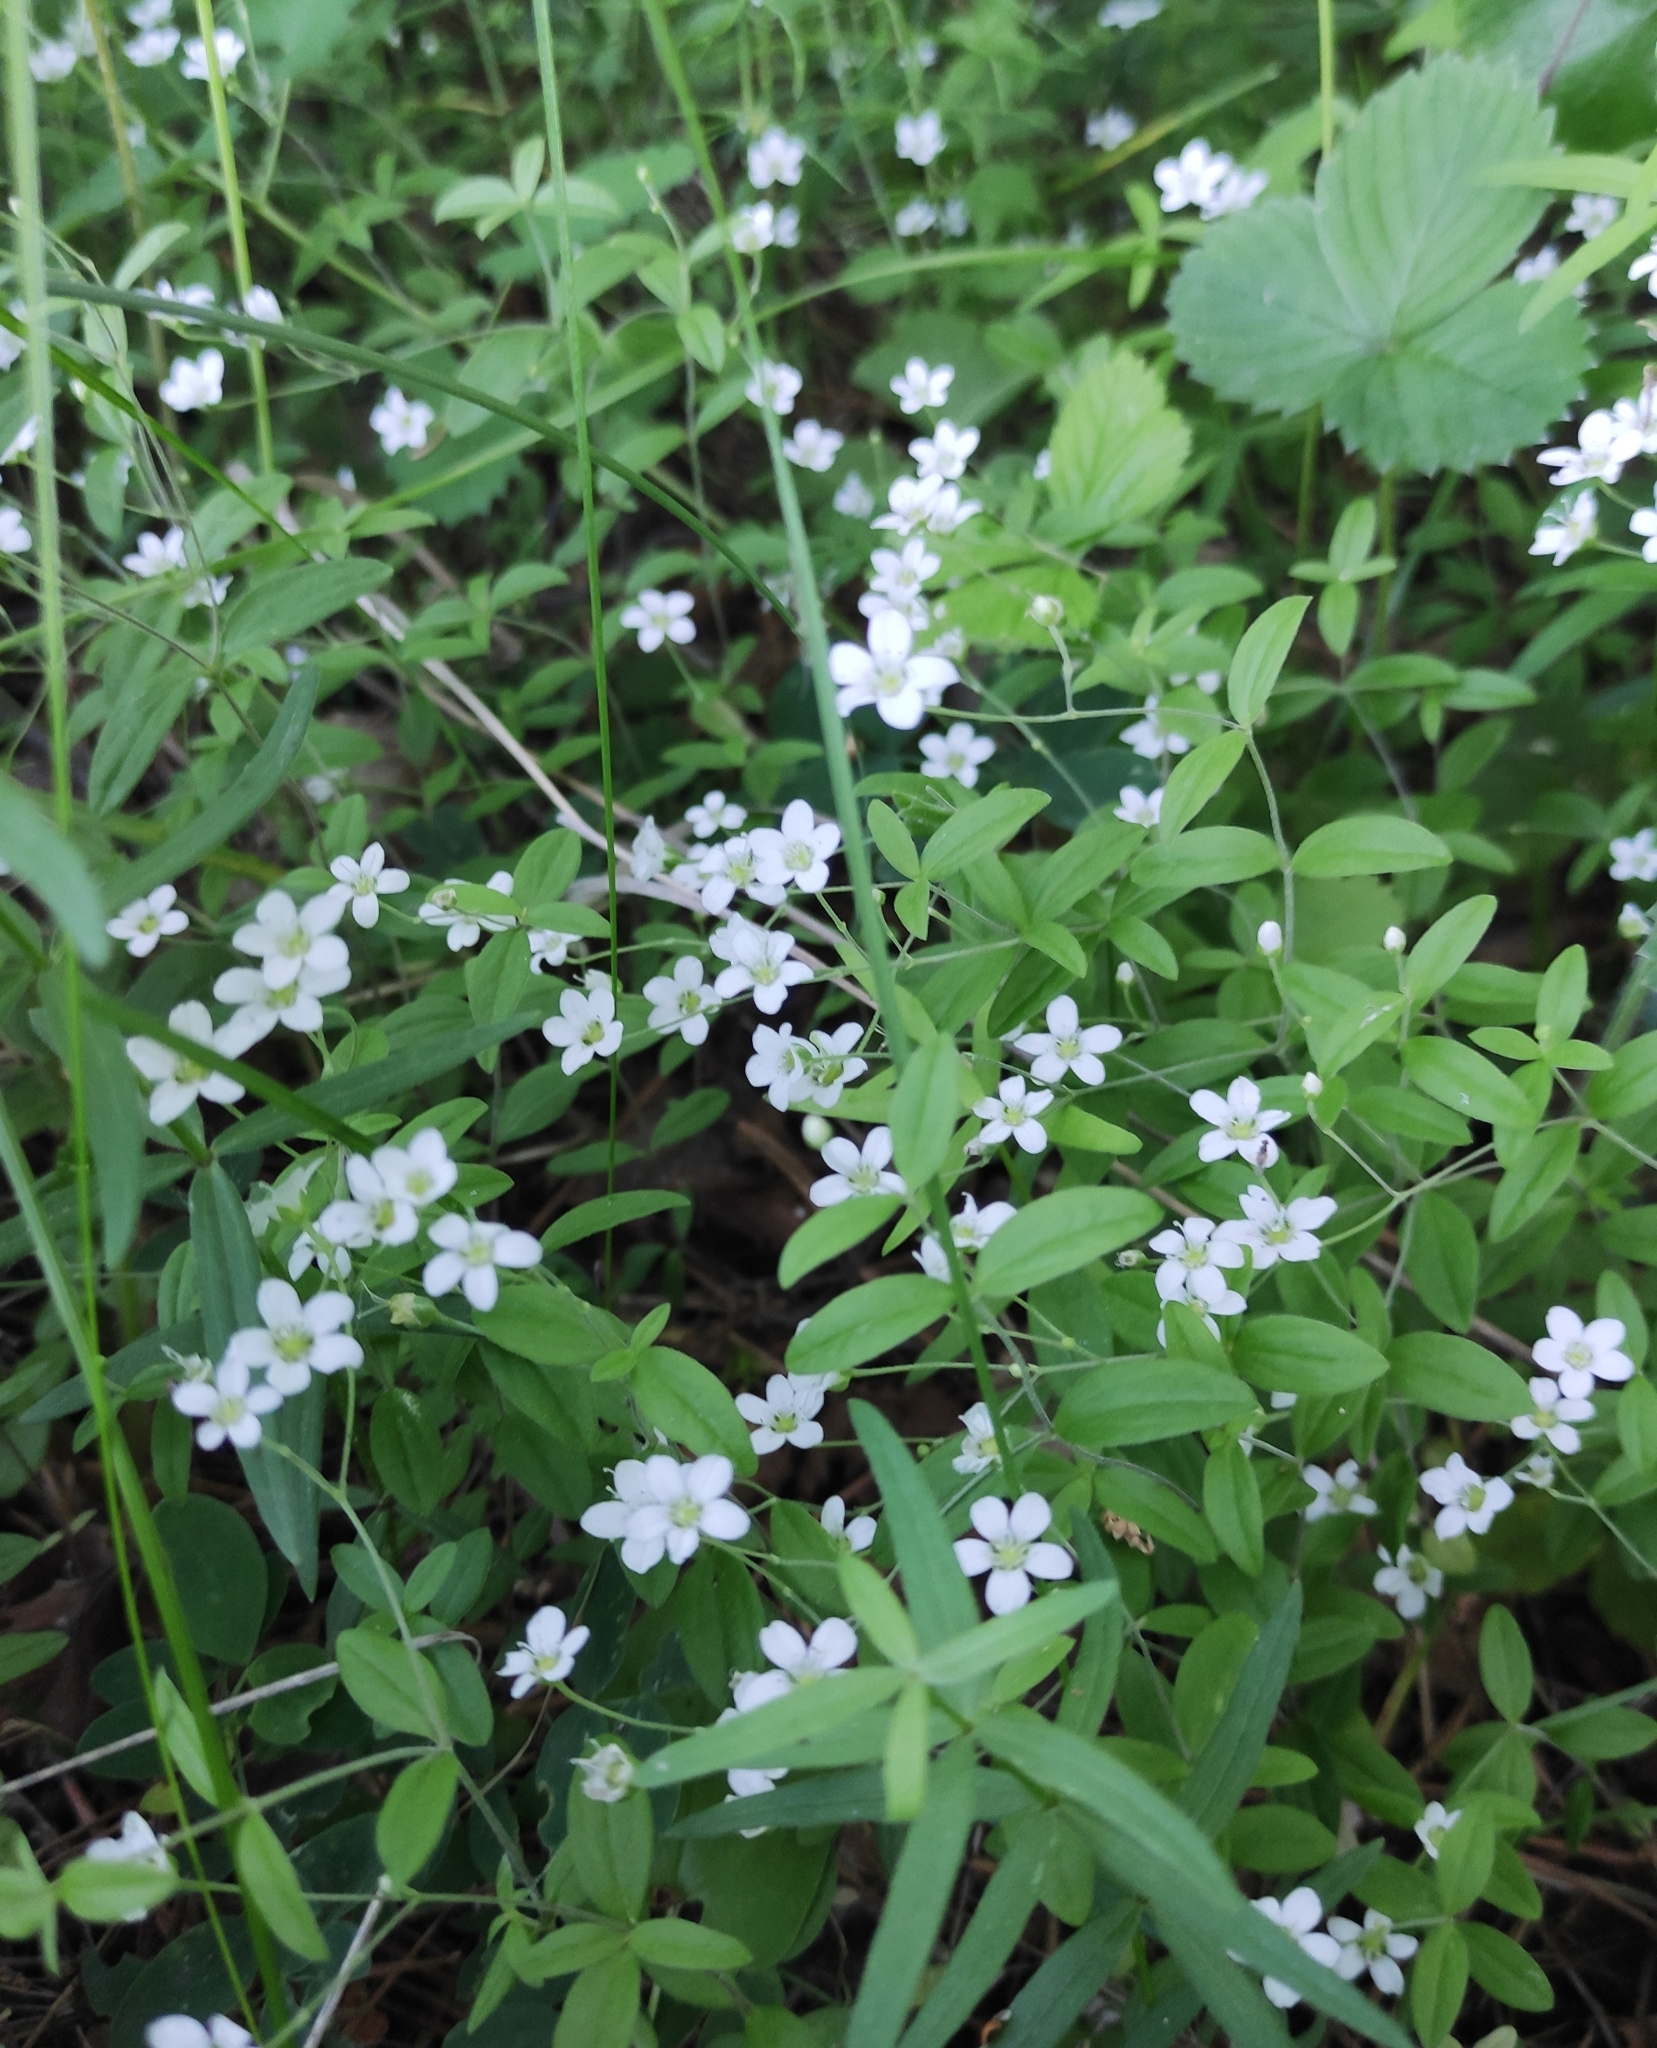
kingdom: Plantae
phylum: Tracheophyta
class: Magnoliopsida
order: Caryophyllales
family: Caryophyllaceae
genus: Moehringia
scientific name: Moehringia lateriflora
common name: Blunt-leaved sandwort
